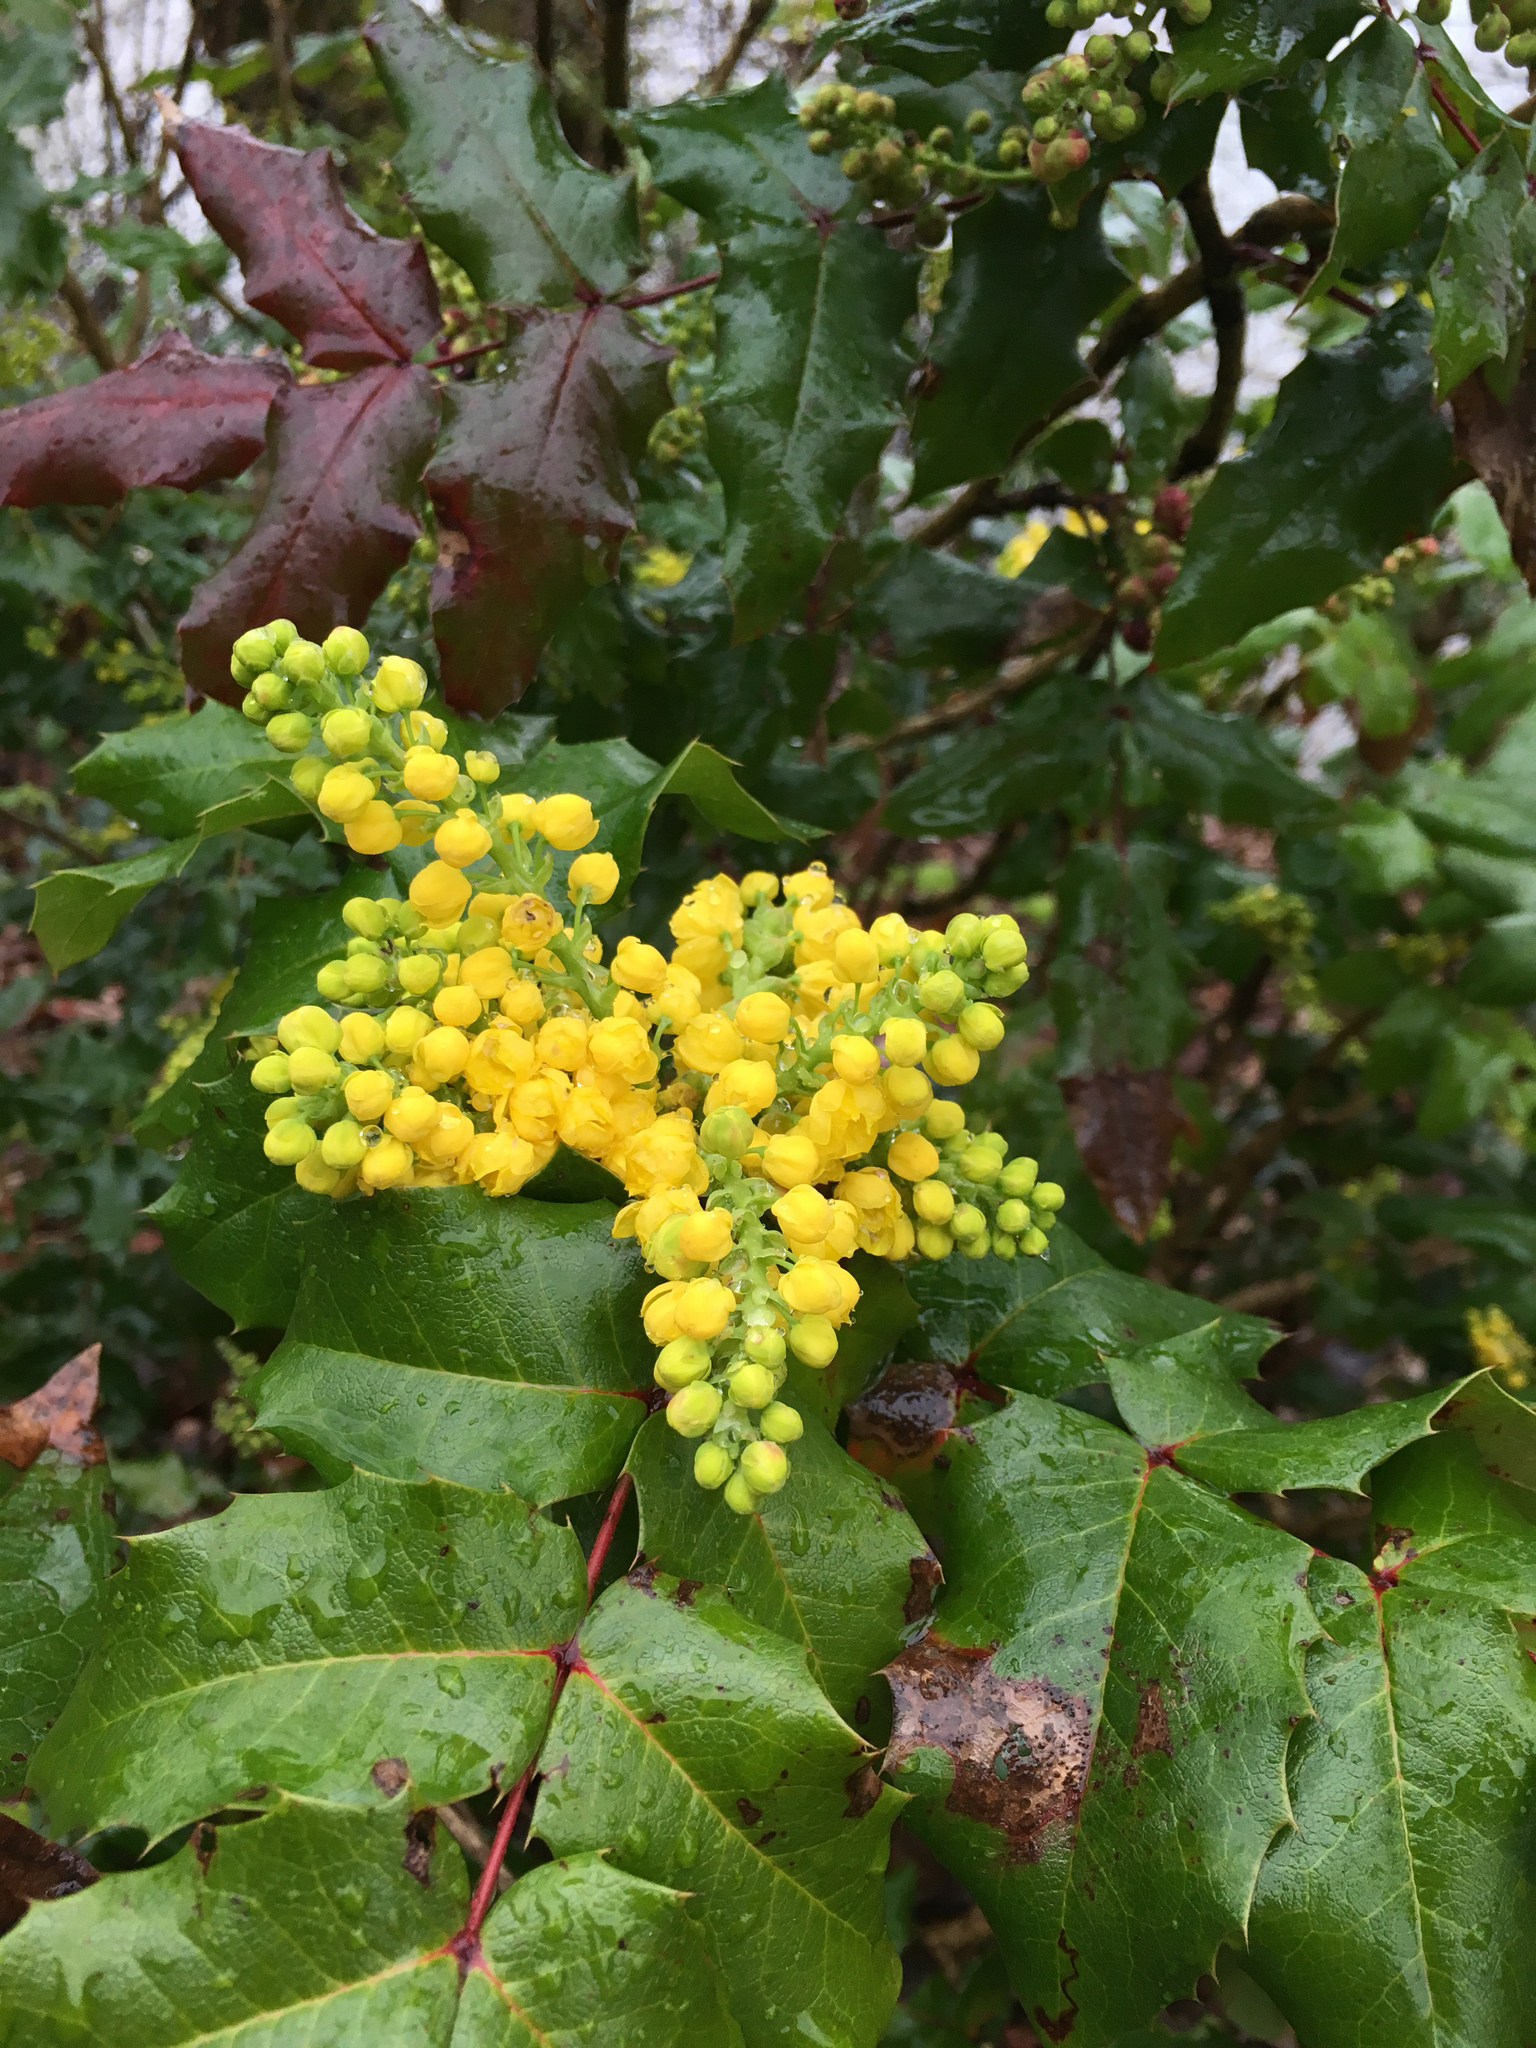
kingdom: Plantae
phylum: Tracheophyta
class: Magnoliopsida
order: Ranunculales
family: Berberidaceae
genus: Mahonia
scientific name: Mahonia aquifolium
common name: Oregon-grape
